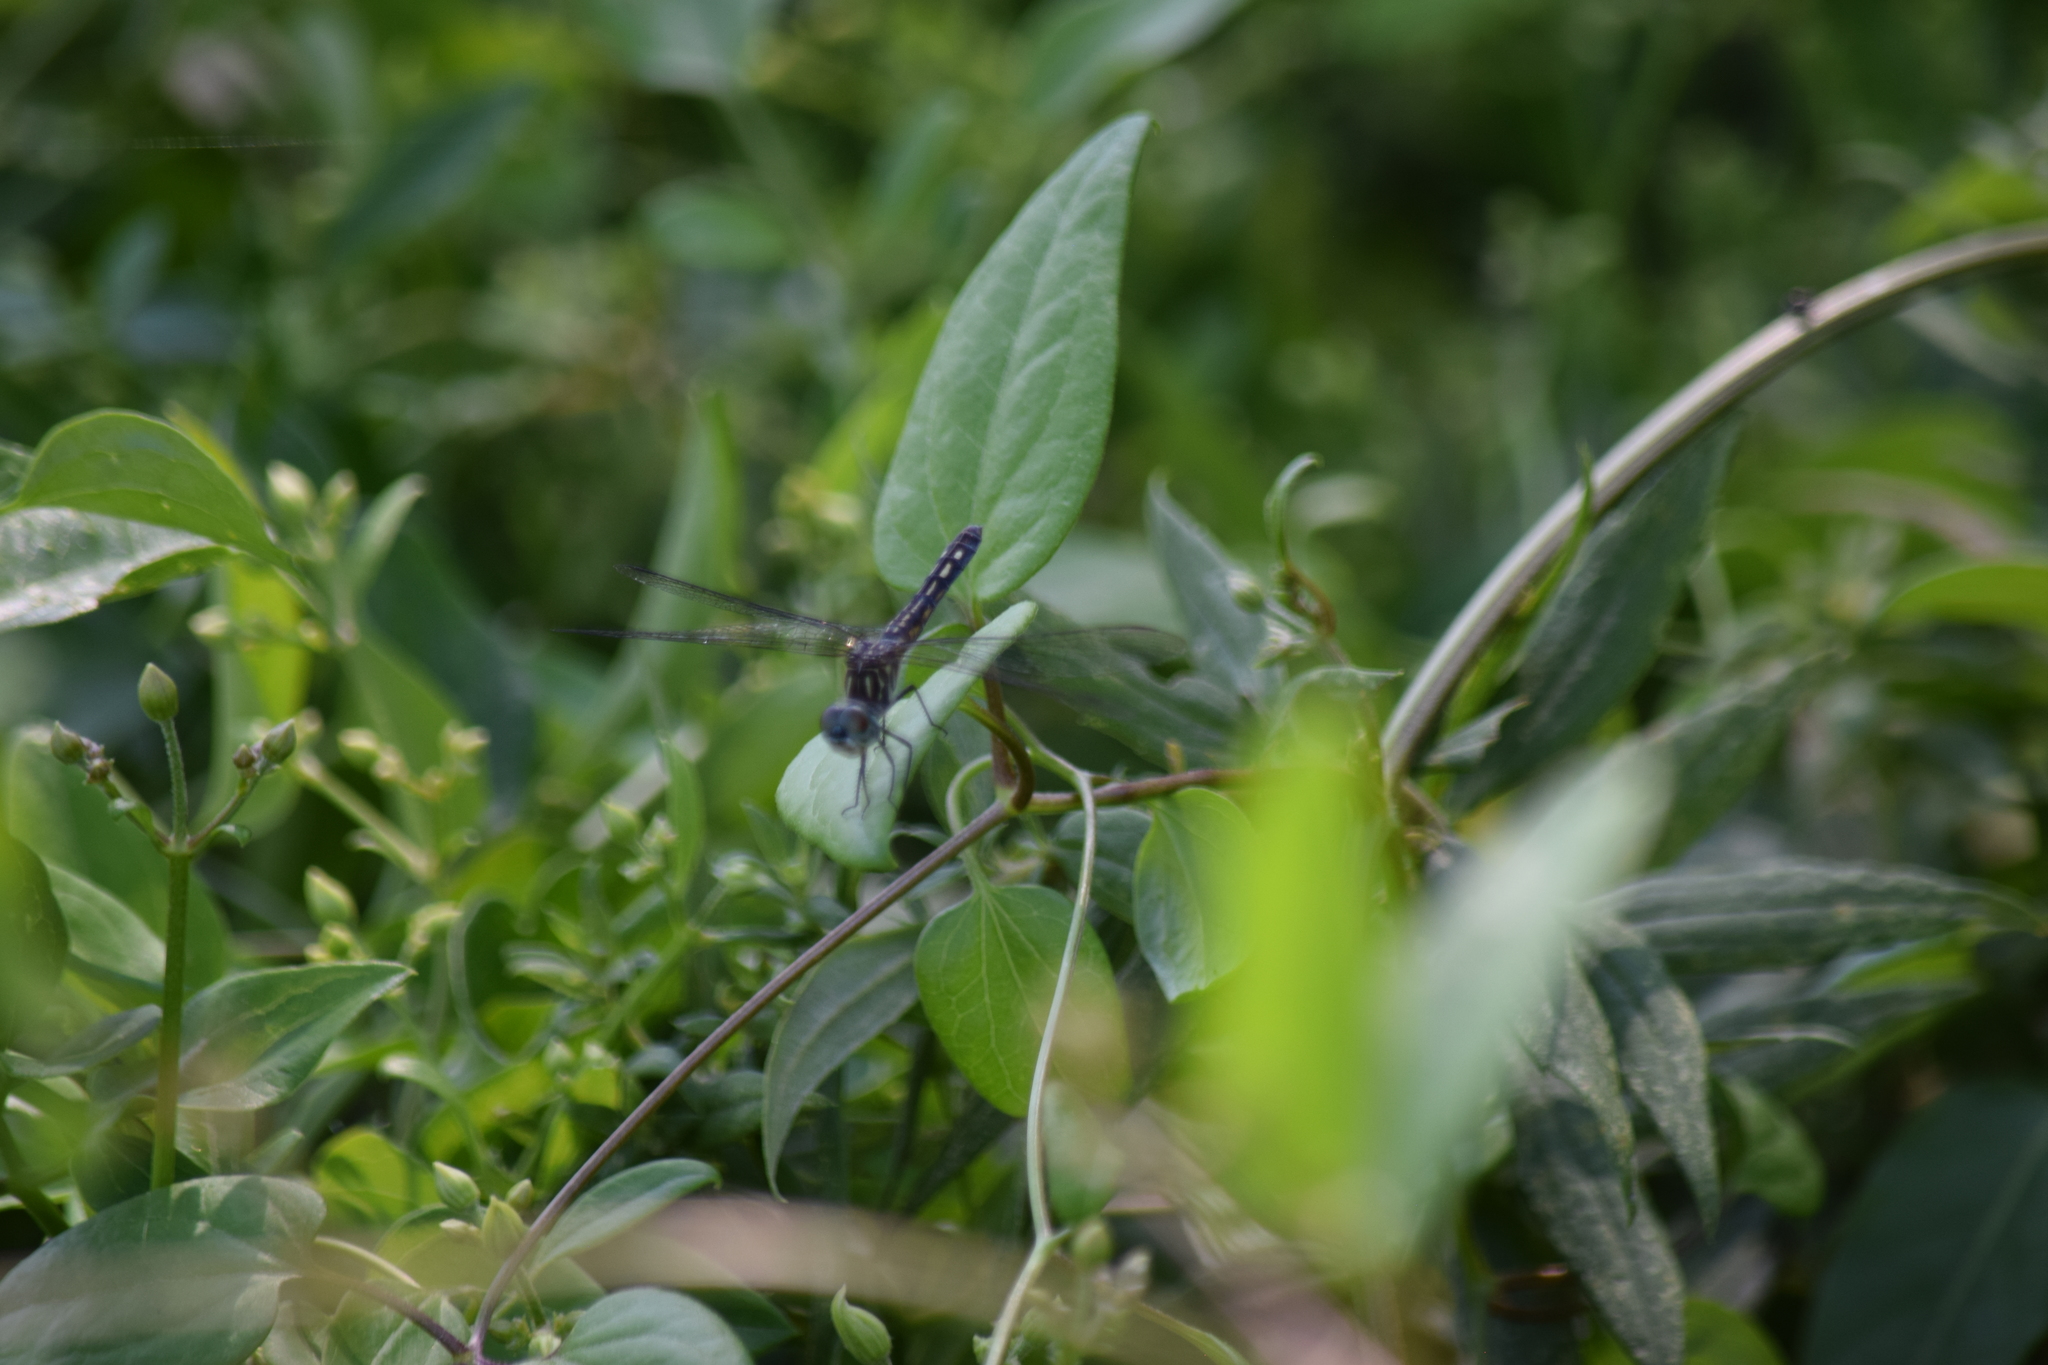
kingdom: Animalia
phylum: Arthropoda
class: Insecta
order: Odonata
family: Libellulidae
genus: Pachydiplax
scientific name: Pachydiplax longipennis
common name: Blue dasher
